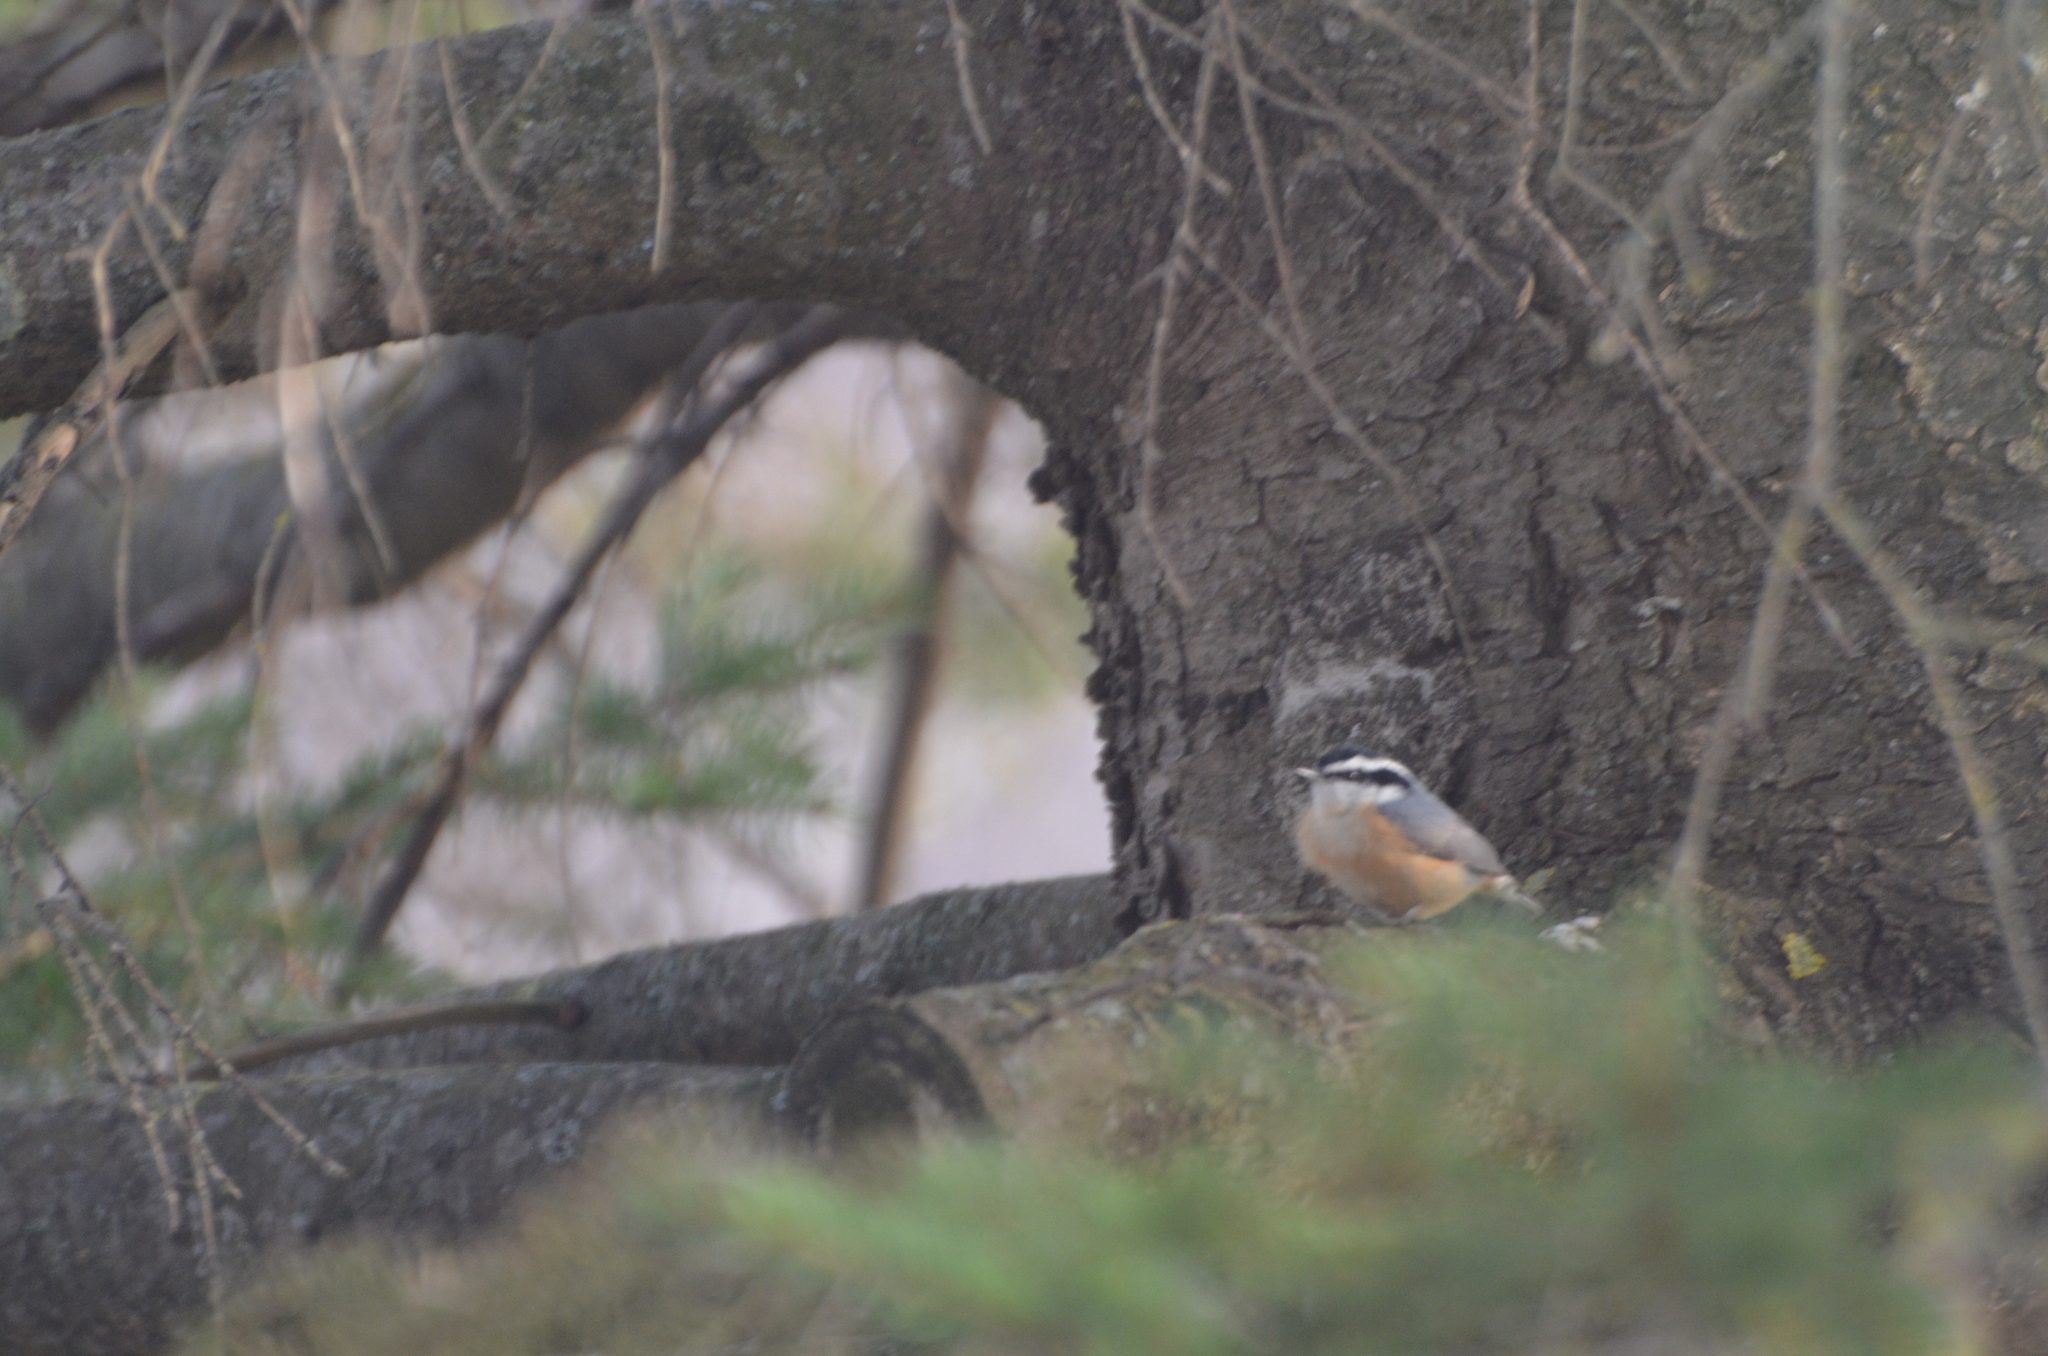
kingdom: Animalia
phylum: Chordata
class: Aves
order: Passeriformes
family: Sittidae
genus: Sitta
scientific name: Sitta canadensis
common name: Red-breasted nuthatch
